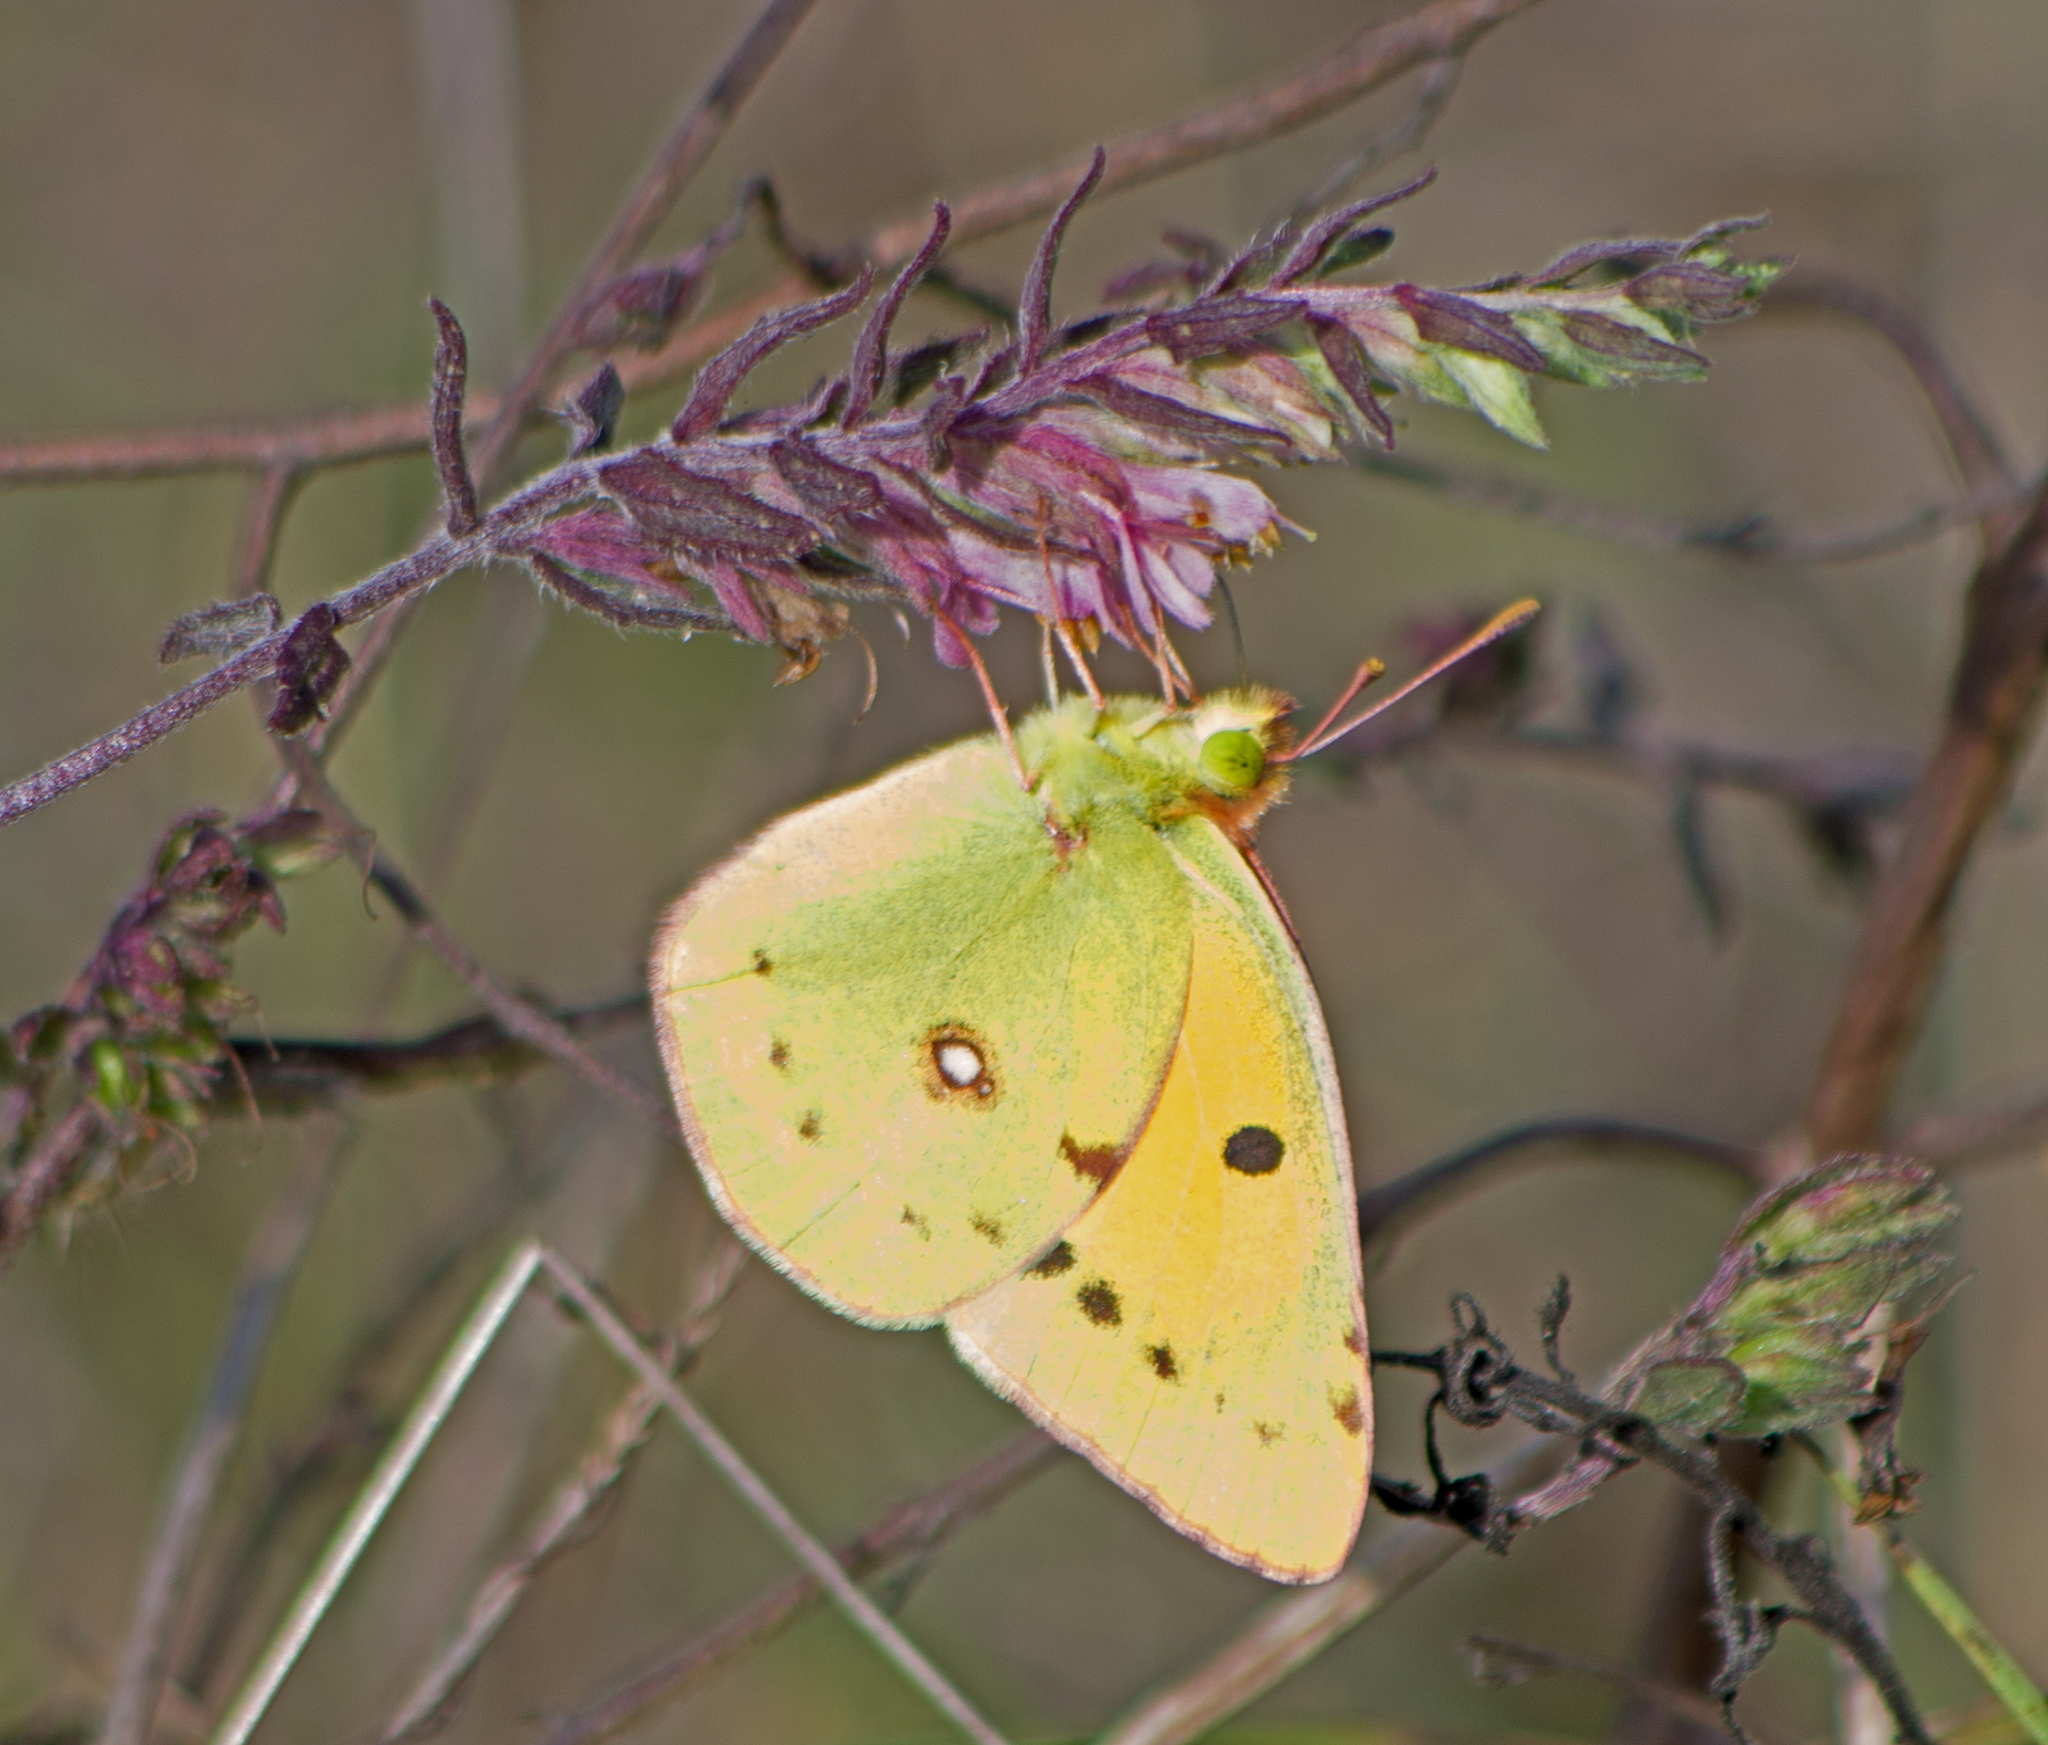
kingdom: Animalia
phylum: Arthropoda
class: Insecta
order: Lepidoptera
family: Pieridae
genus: Colias
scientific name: Colias croceus
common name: Clouded yellow
